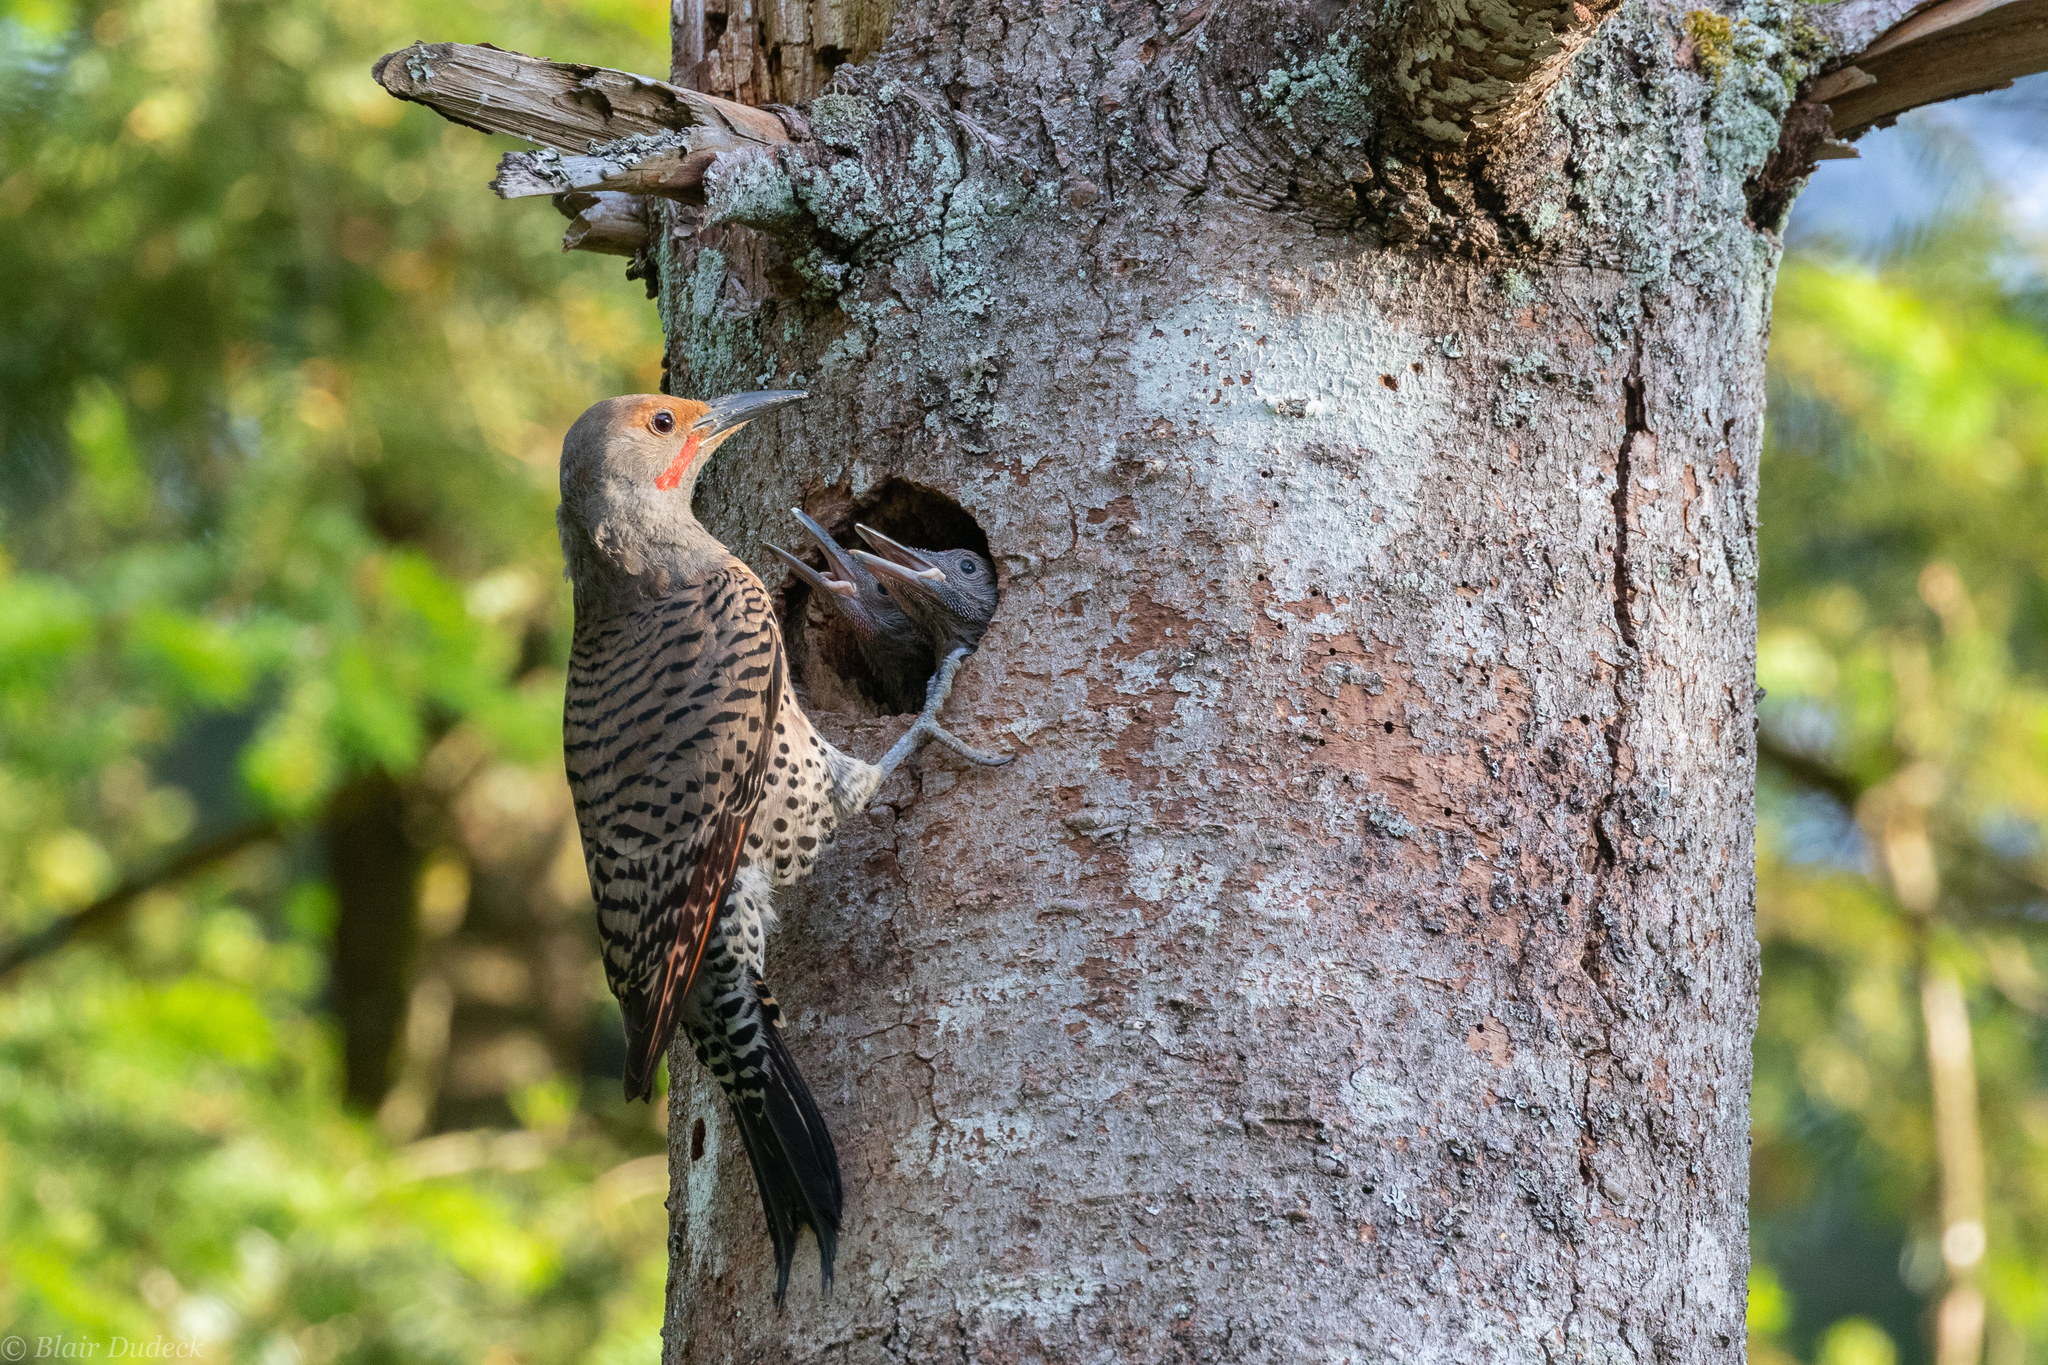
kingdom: Animalia
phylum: Chordata
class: Aves
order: Piciformes
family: Picidae
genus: Colaptes
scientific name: Colaptes auratus
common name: Northern flicker
